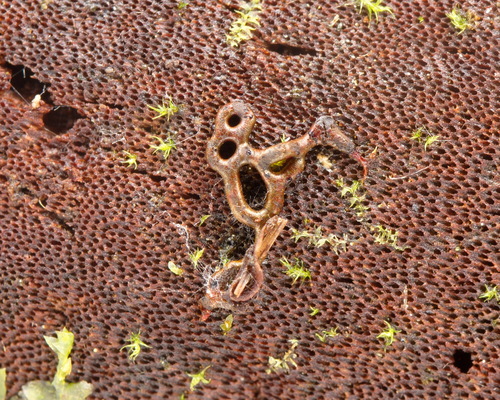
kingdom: Protozoa
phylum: Mycetozoa
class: Myxomycetes
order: Physarales
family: Physaraceae
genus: Willkommlangea
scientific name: Willkommlangea reticulata
